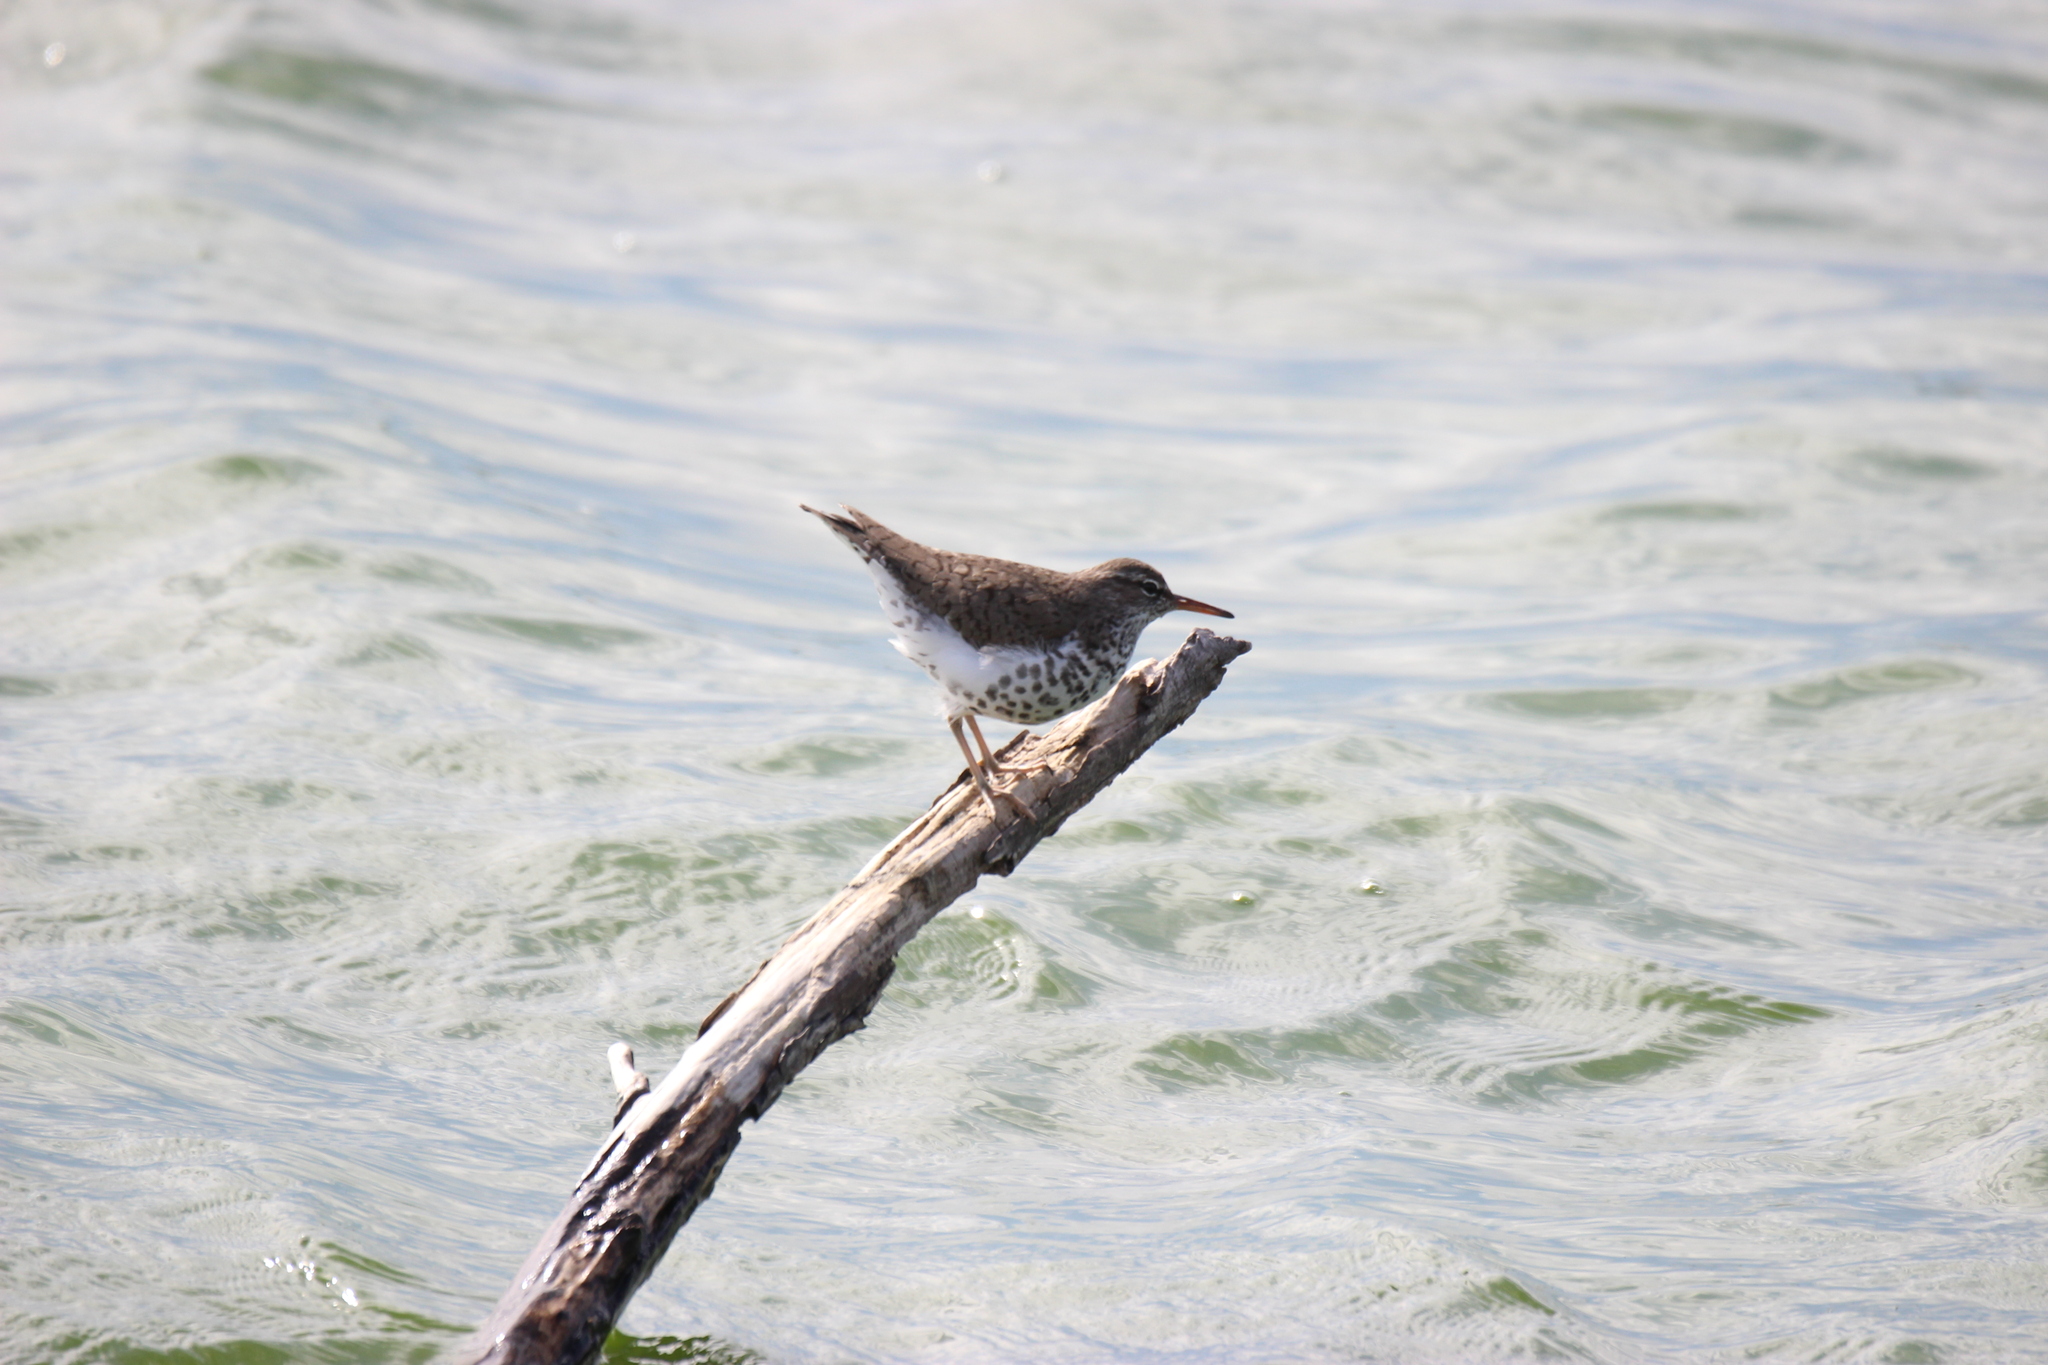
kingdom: Animalia
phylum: Chordata
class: Aves
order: Charadriiformes
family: Scolopacidae
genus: Actitis
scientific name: Actitis macularius
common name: Spotted sandpiper
